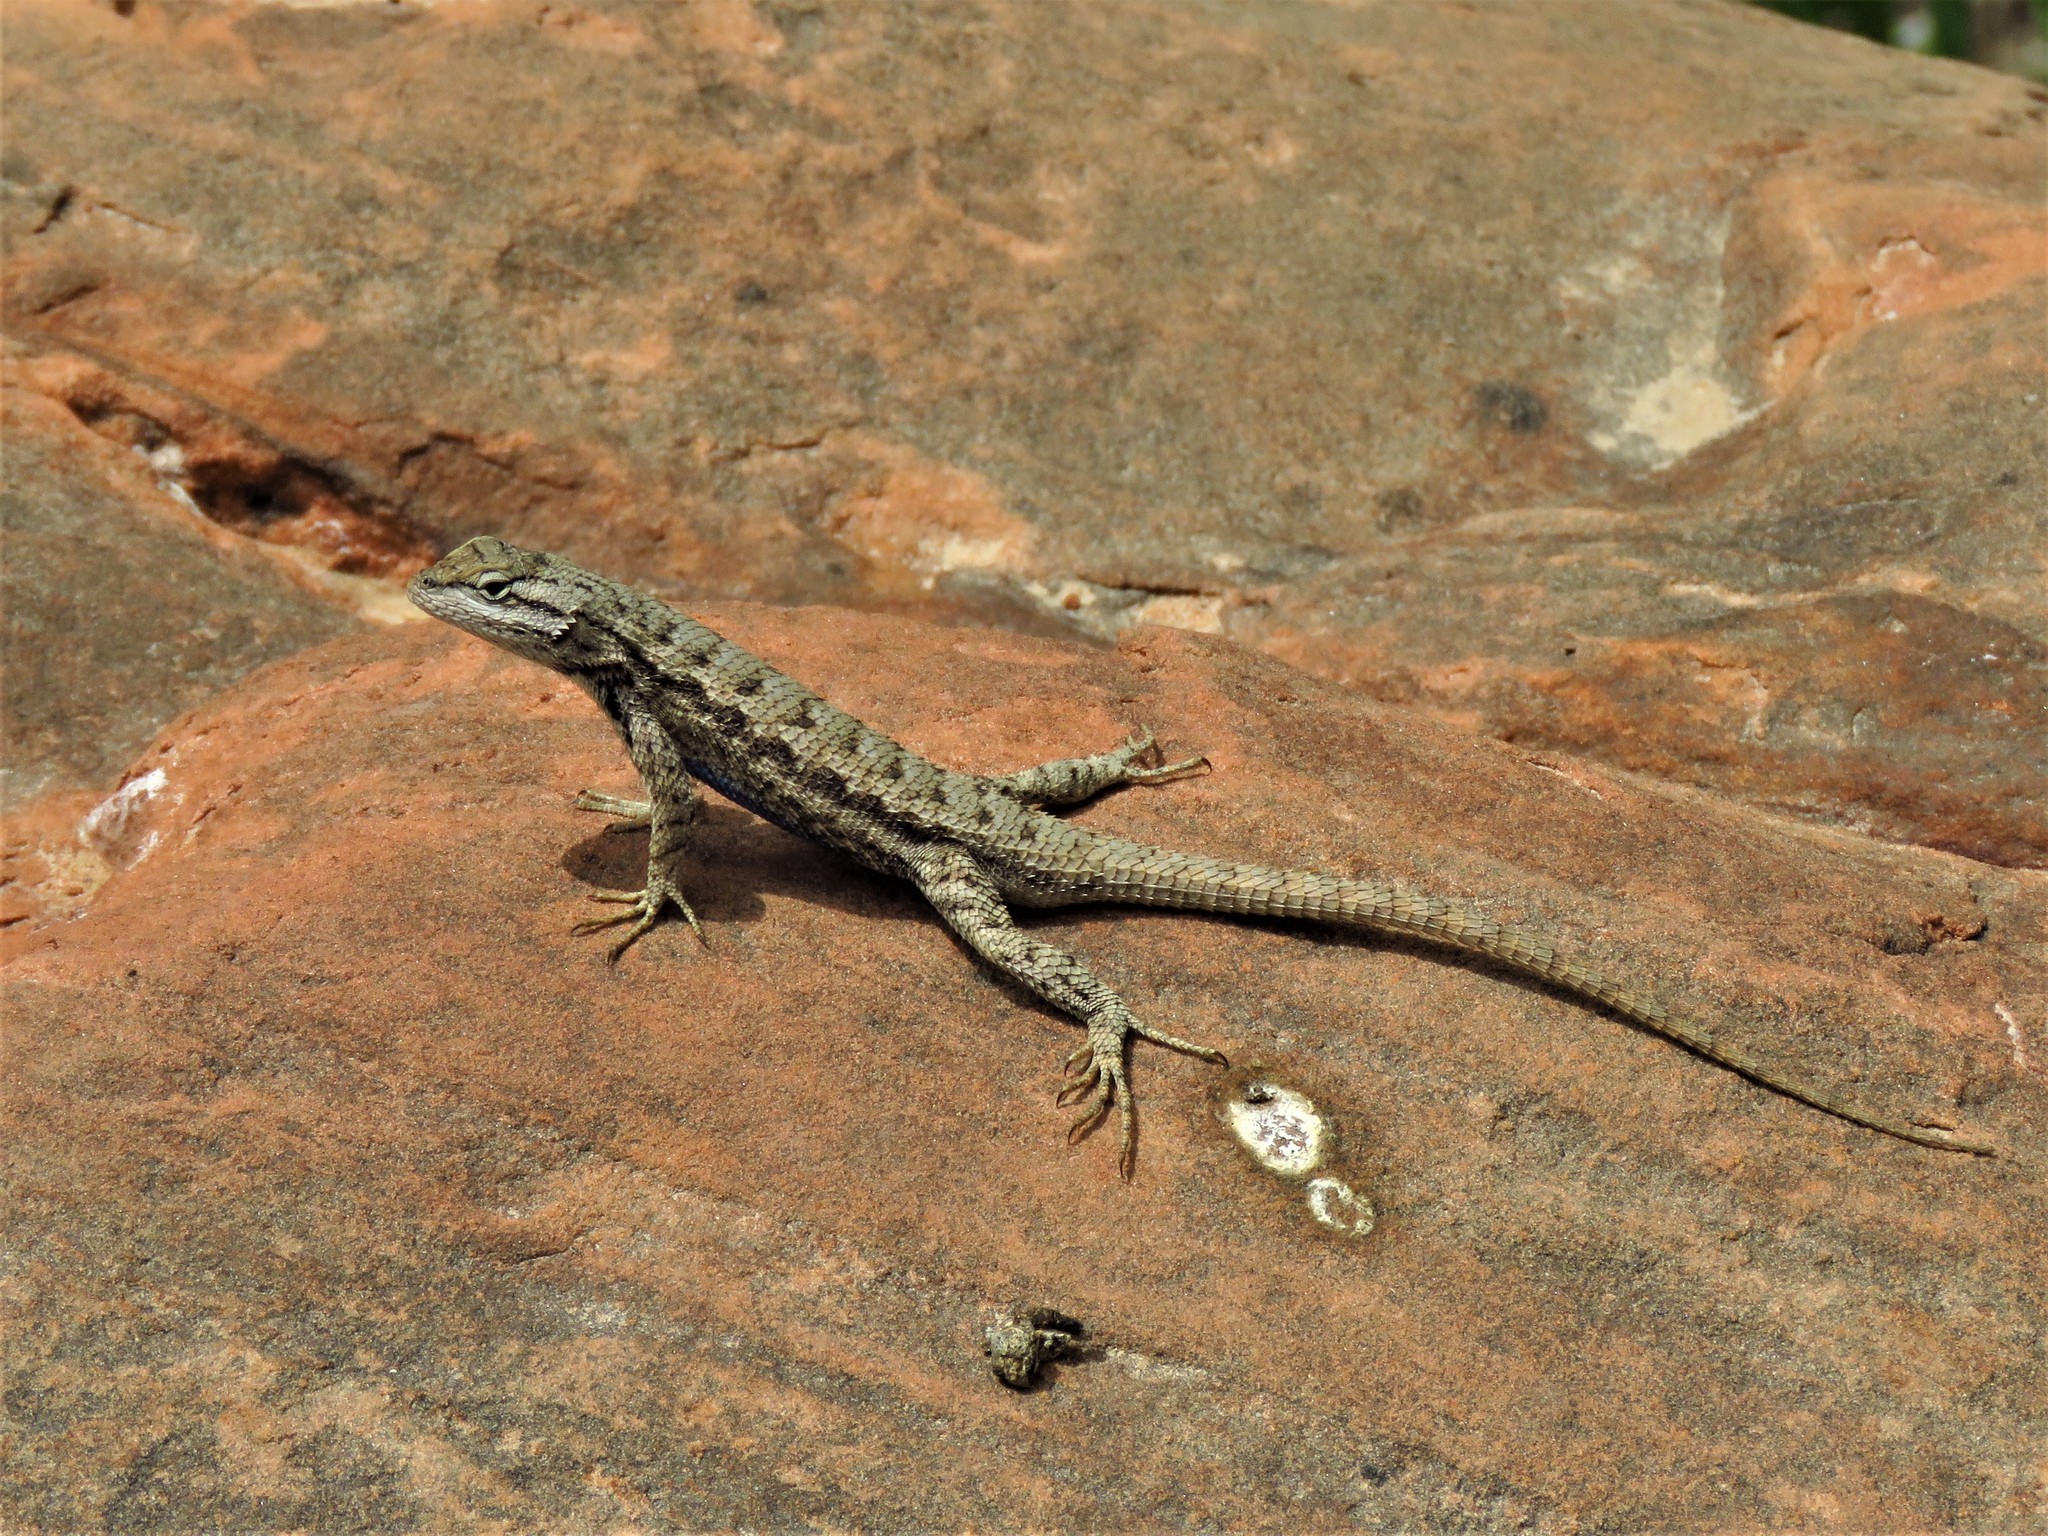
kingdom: Animalia
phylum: Chordata
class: Squamata
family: Phrynosomatidae
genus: Sceloporus
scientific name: Sceloporus tristichus
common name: Plateau fence lizard
